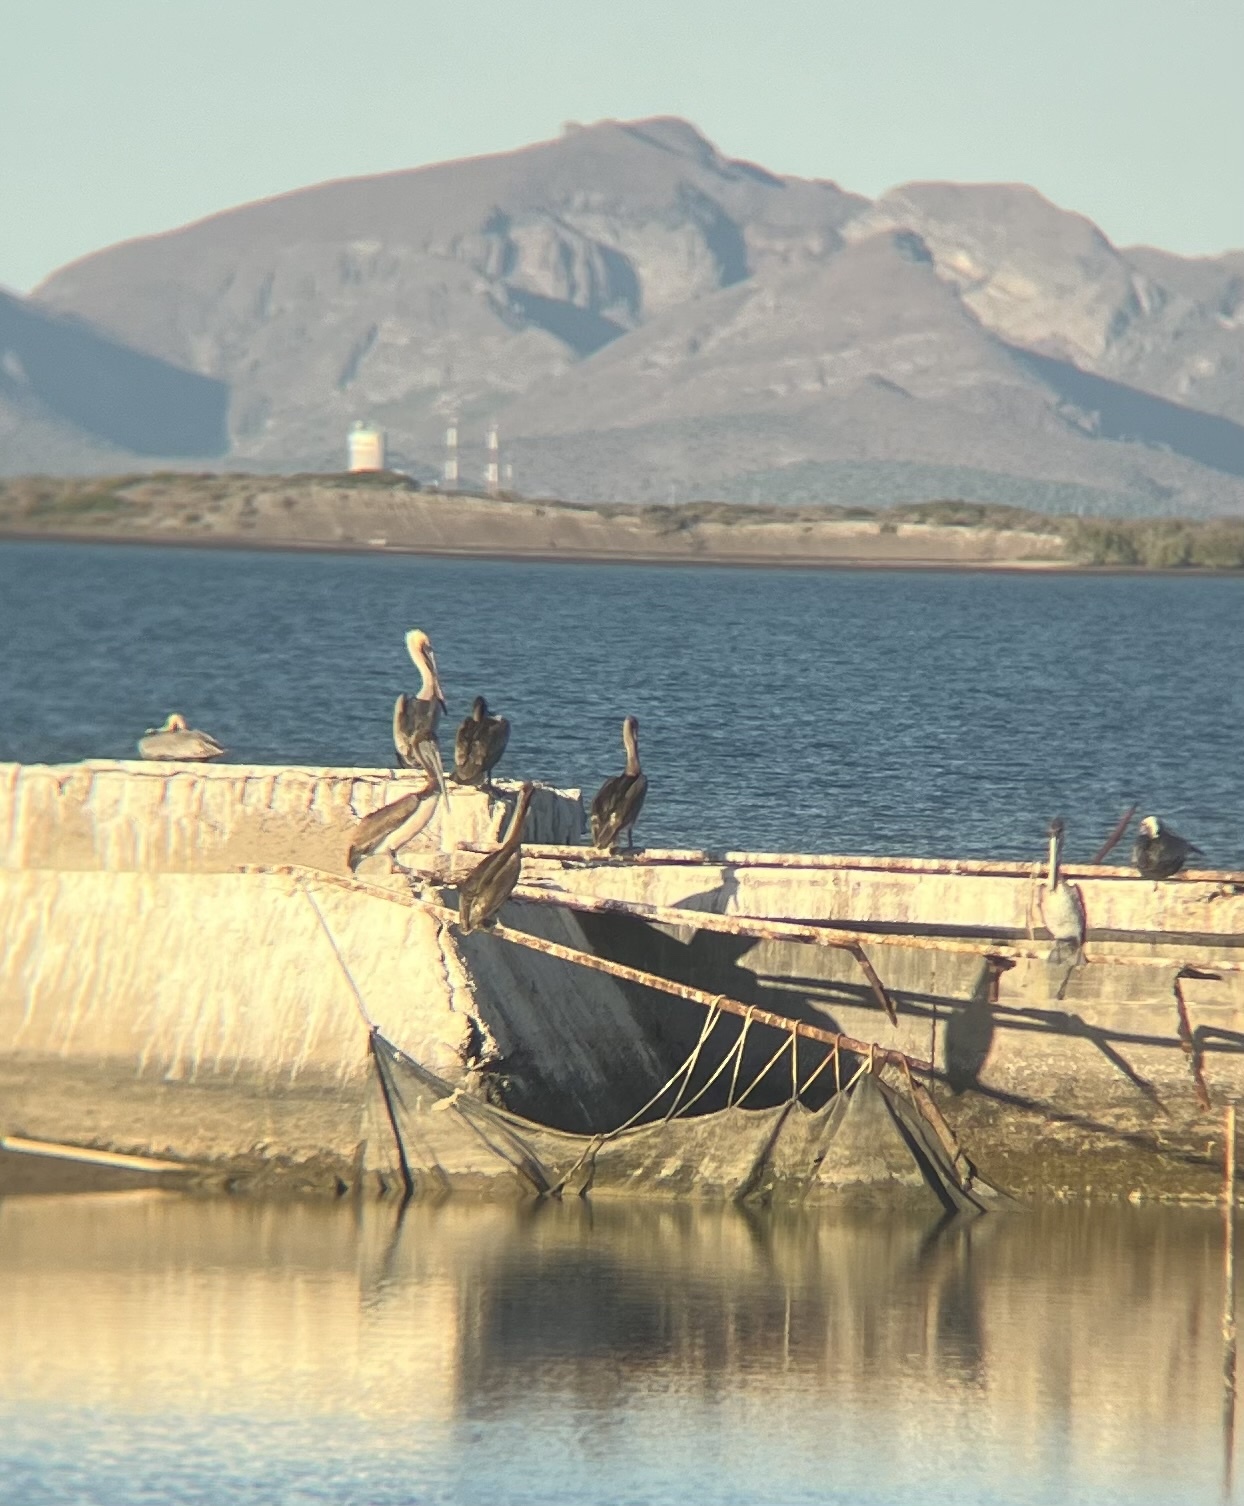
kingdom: Animalia
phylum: Chordata
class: Aves
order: Pelecaniformes
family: Pelecanidae
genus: Pelecanus
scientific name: Pelecanus occidentalis
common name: Brown pelican
